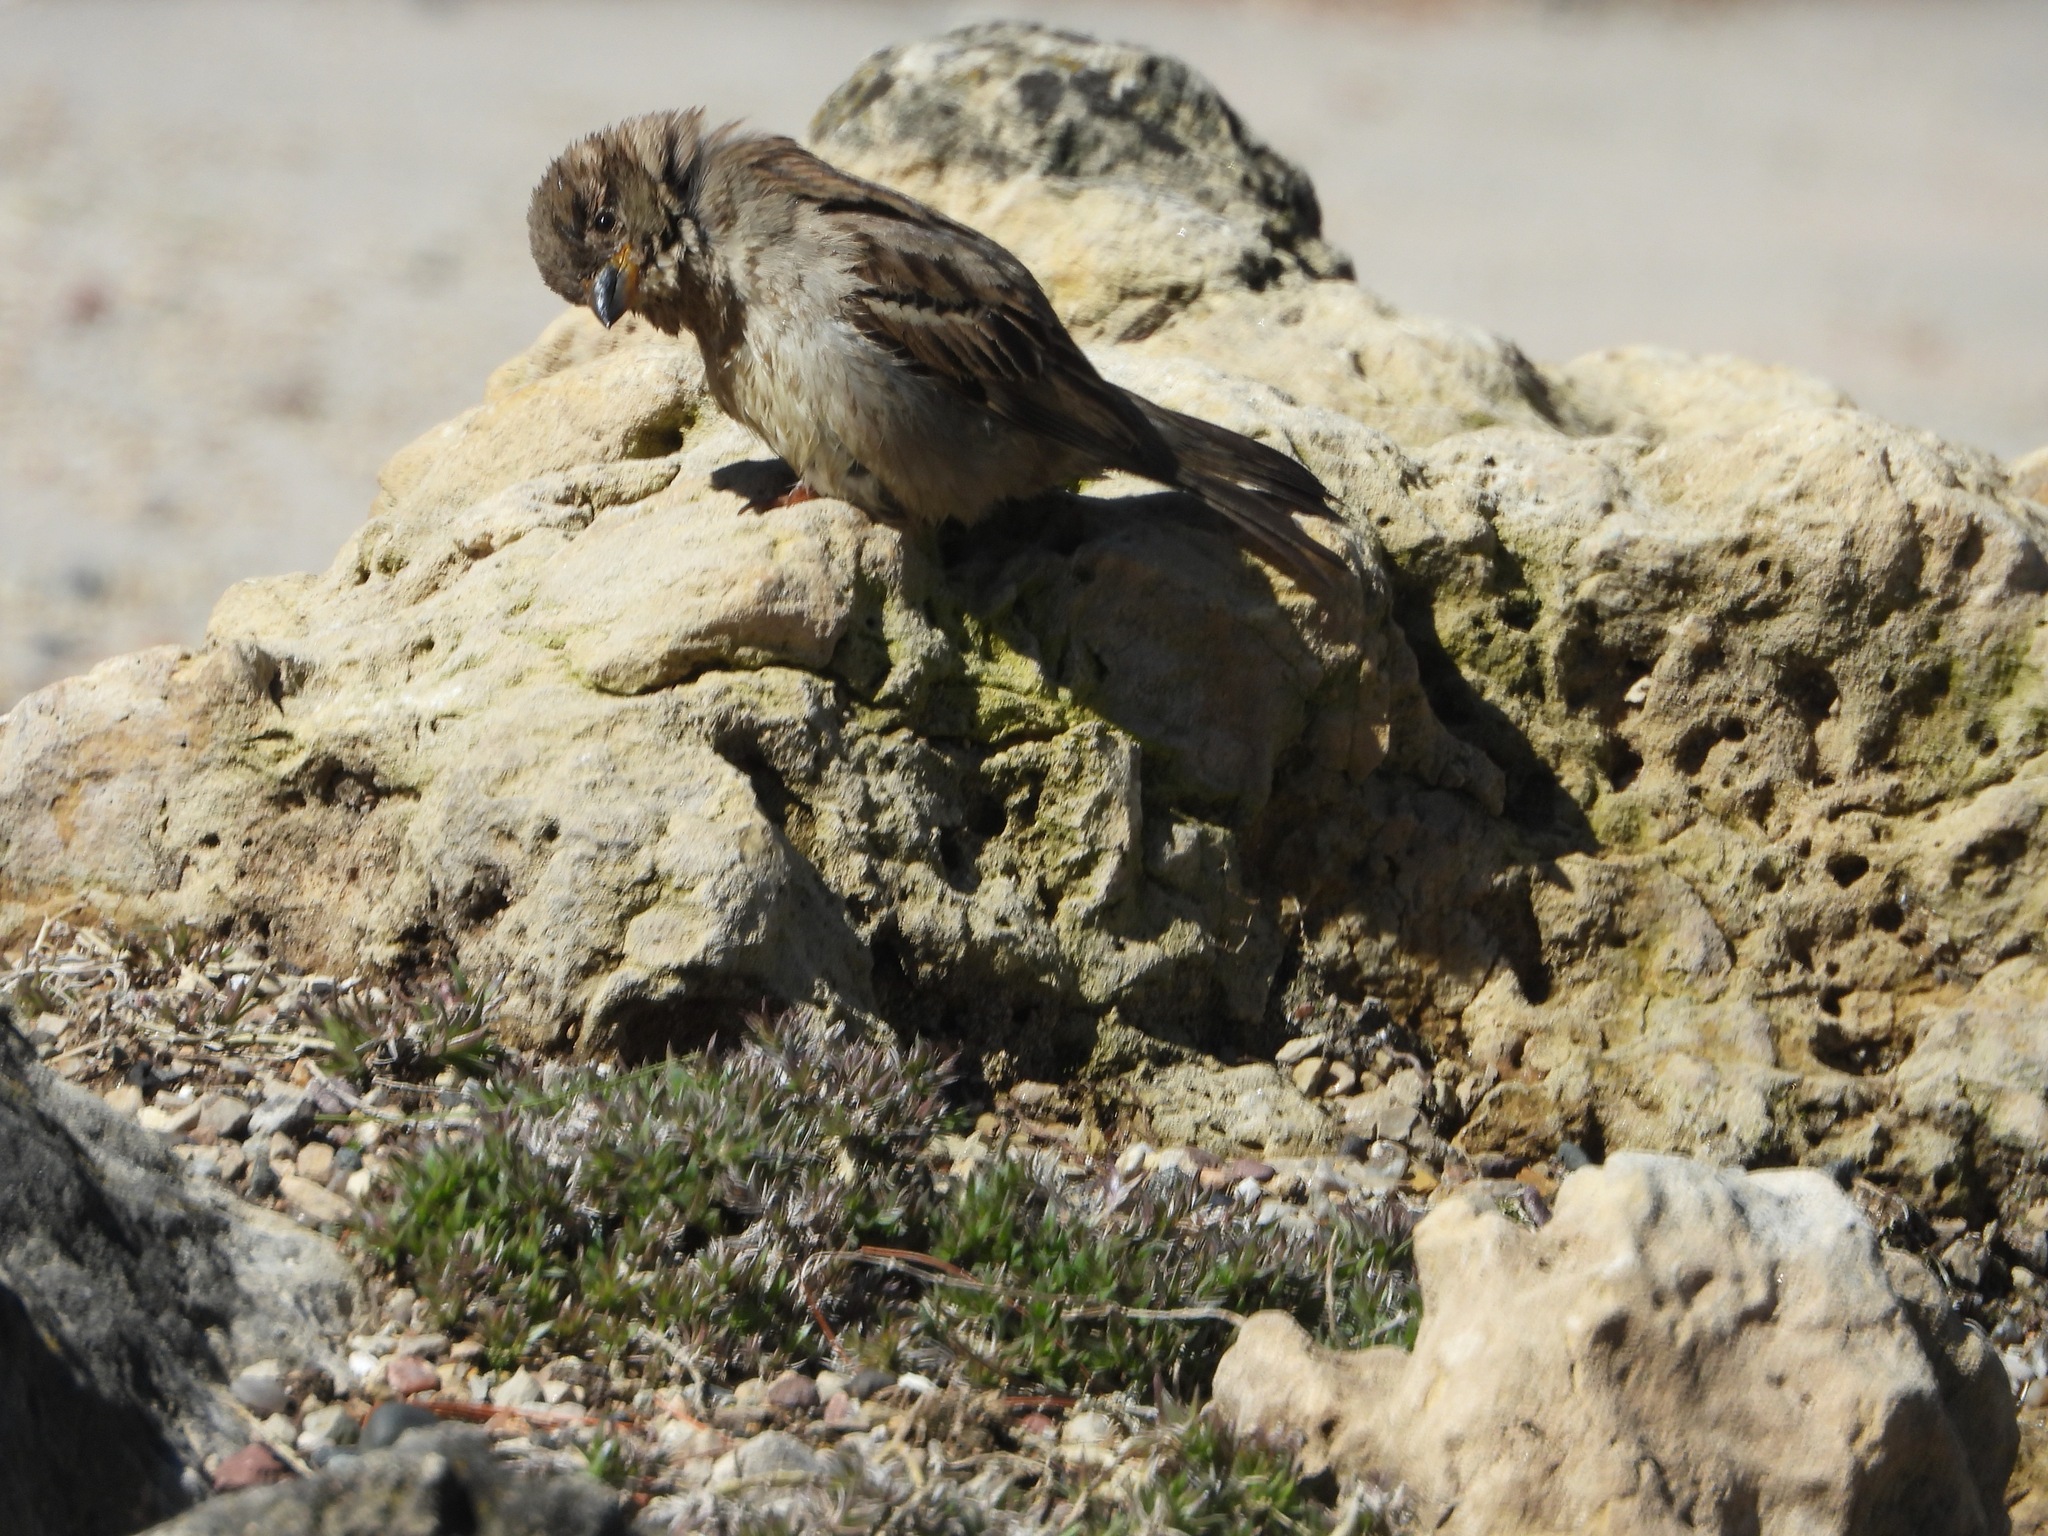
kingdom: Animalia
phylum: Chordata
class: Aves
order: Passeriformes
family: Passeridae
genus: Passer
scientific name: Passer domesticus
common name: House sparrow
